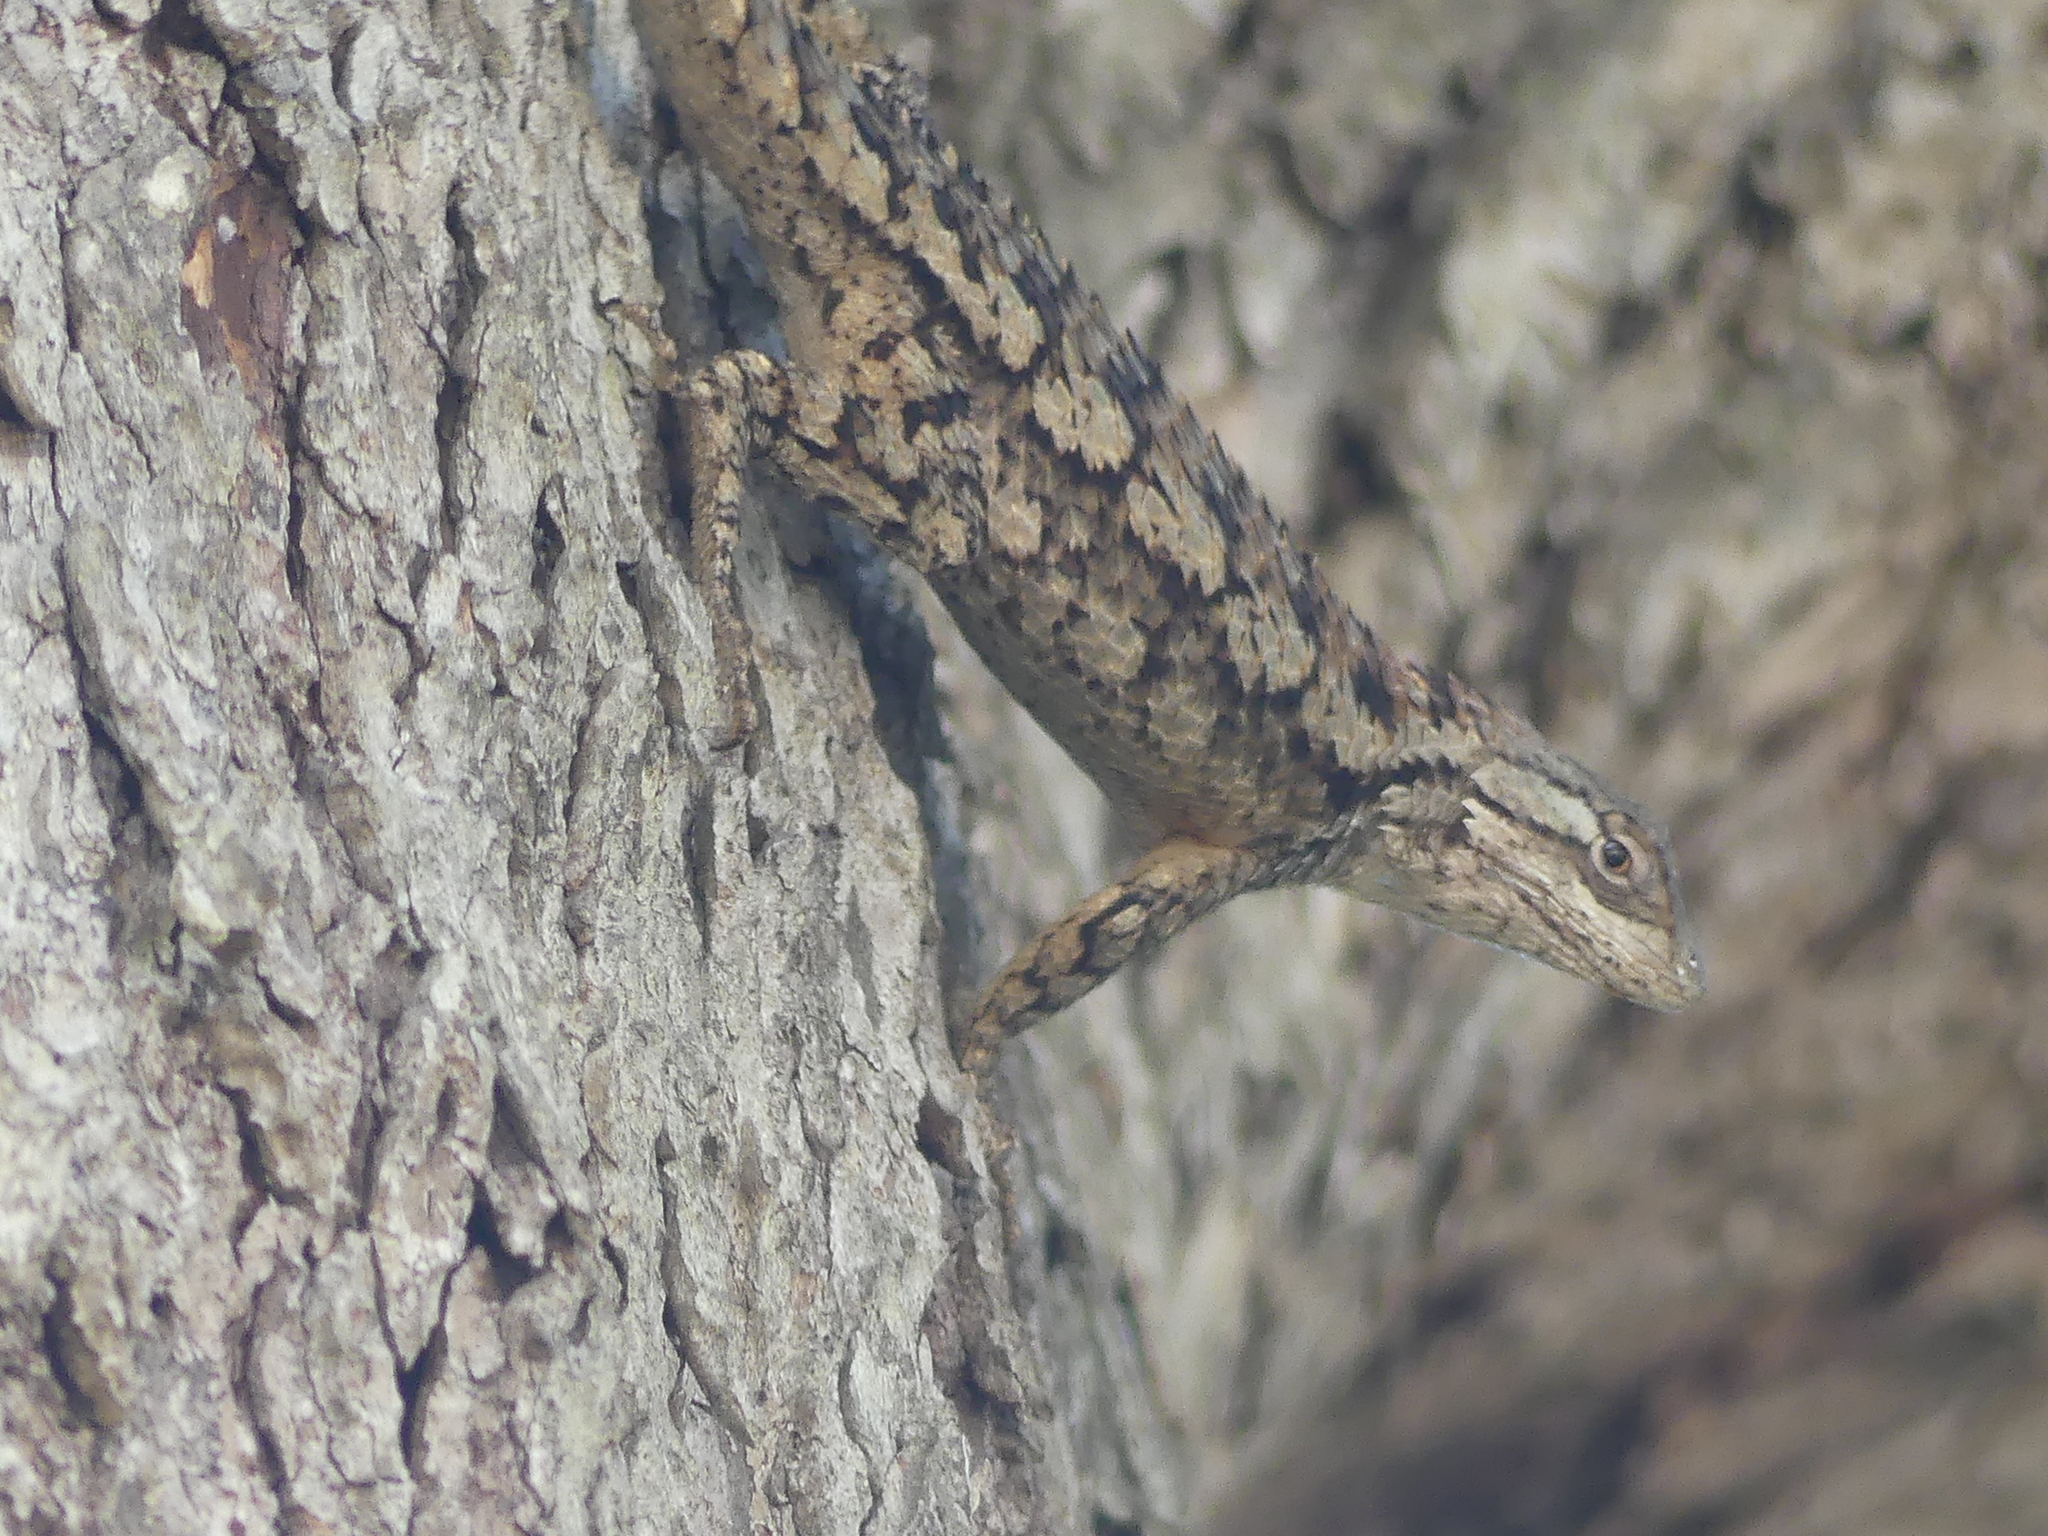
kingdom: Animalia
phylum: Chordata
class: Squamata
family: Phrynosomatidae
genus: Sceloporus
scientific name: Sceloporus olivaceus
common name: Texas spiny lizard
